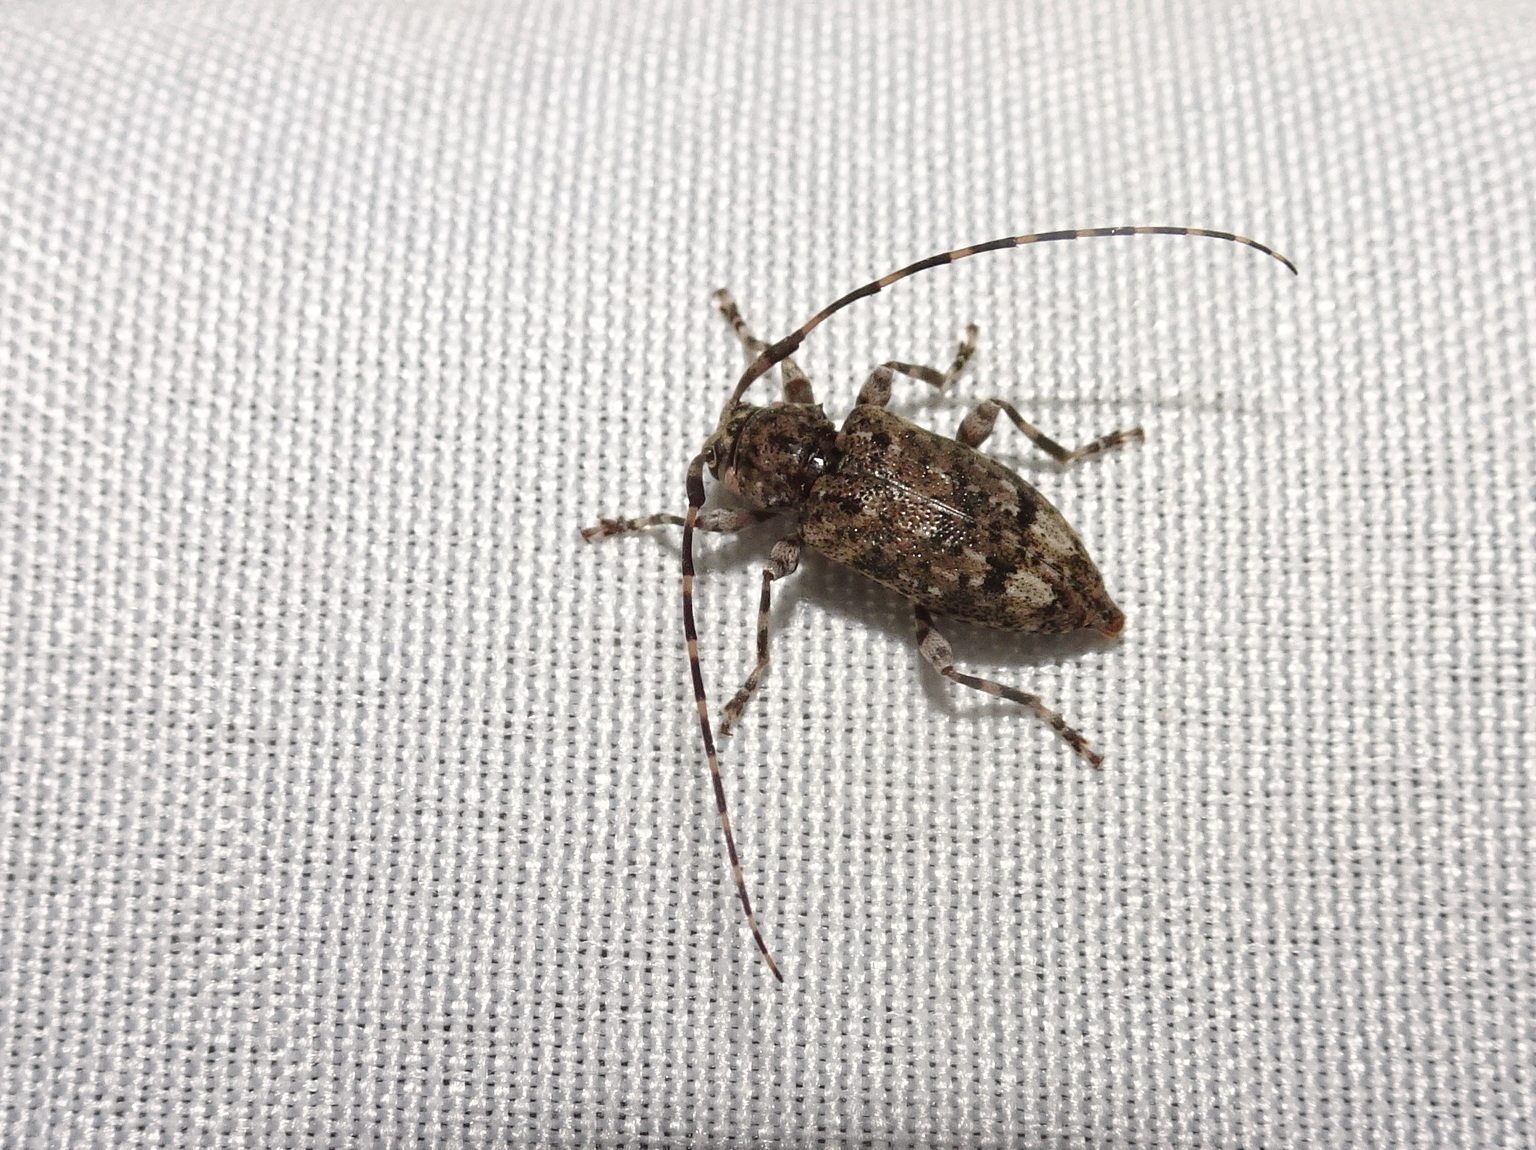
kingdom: Animalia
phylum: Arthropoda
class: Insecta
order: Coleoptera
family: Cerambycidae
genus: Astyleiopus
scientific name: Astyleiopus variegatus
